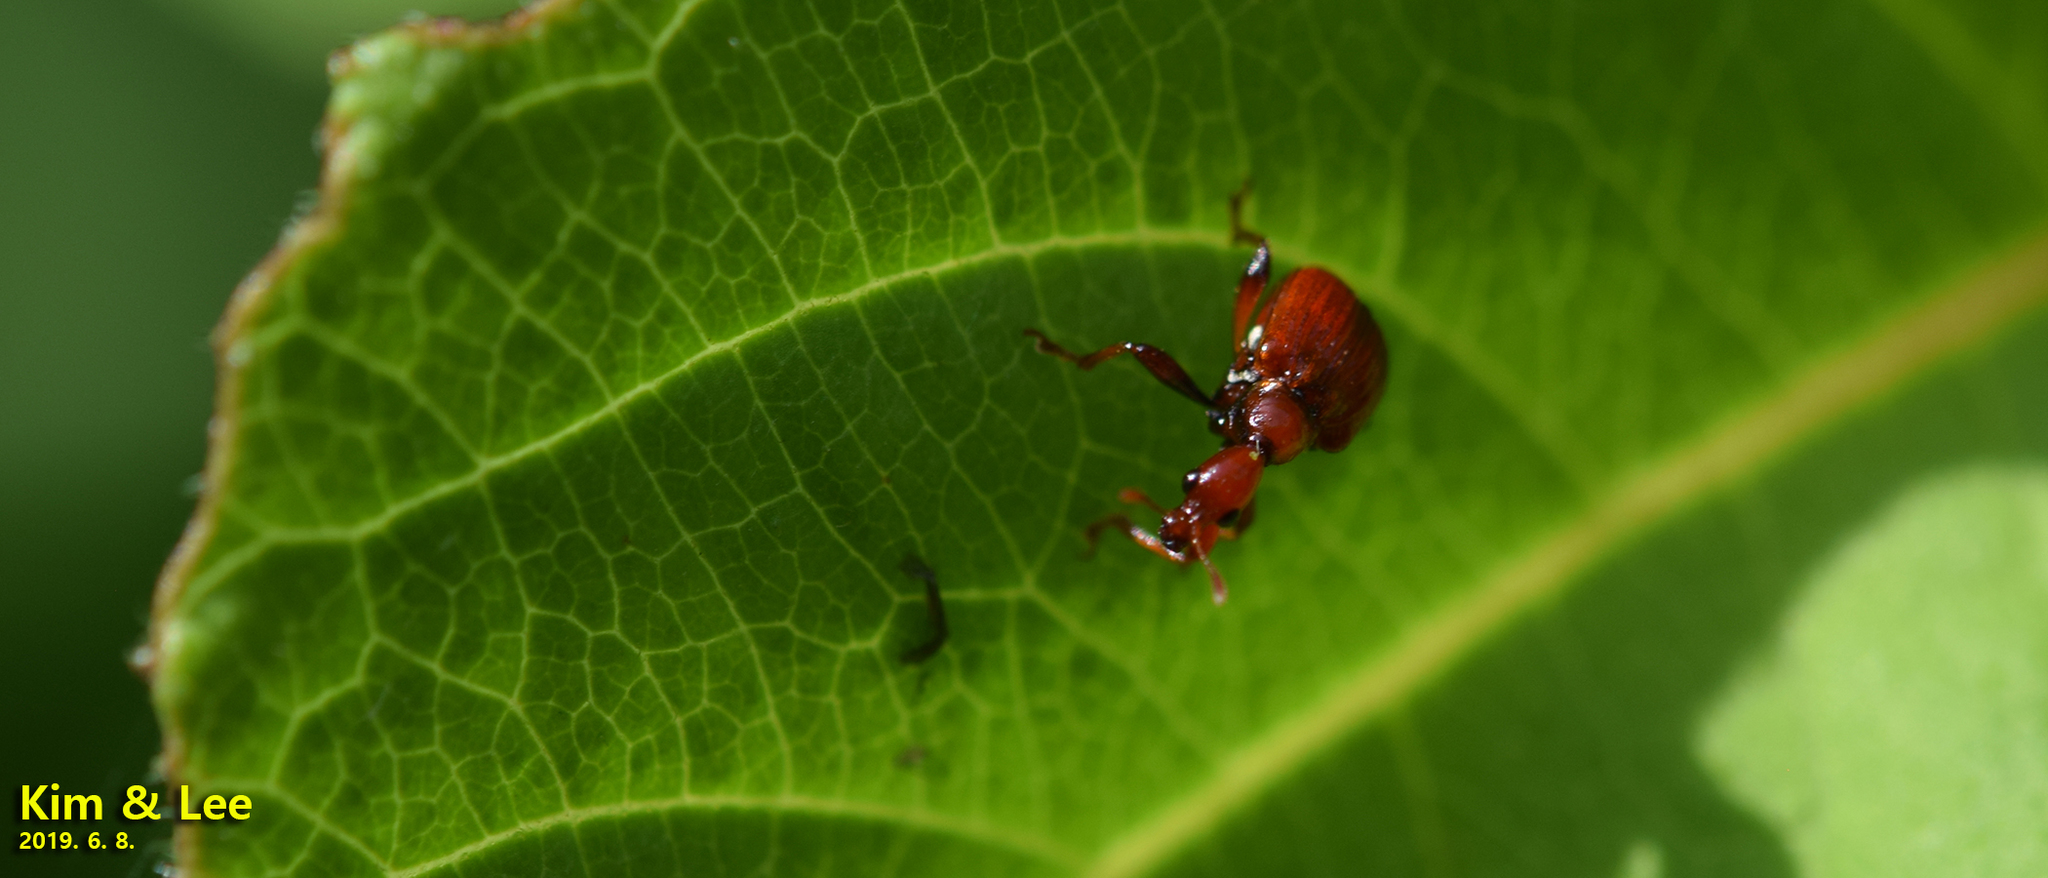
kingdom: Animalia
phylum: Arthropoda
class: Insecta
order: Coleoptera
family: Attelabidae
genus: Leptapoderus
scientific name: Leptapoderus rubidus
